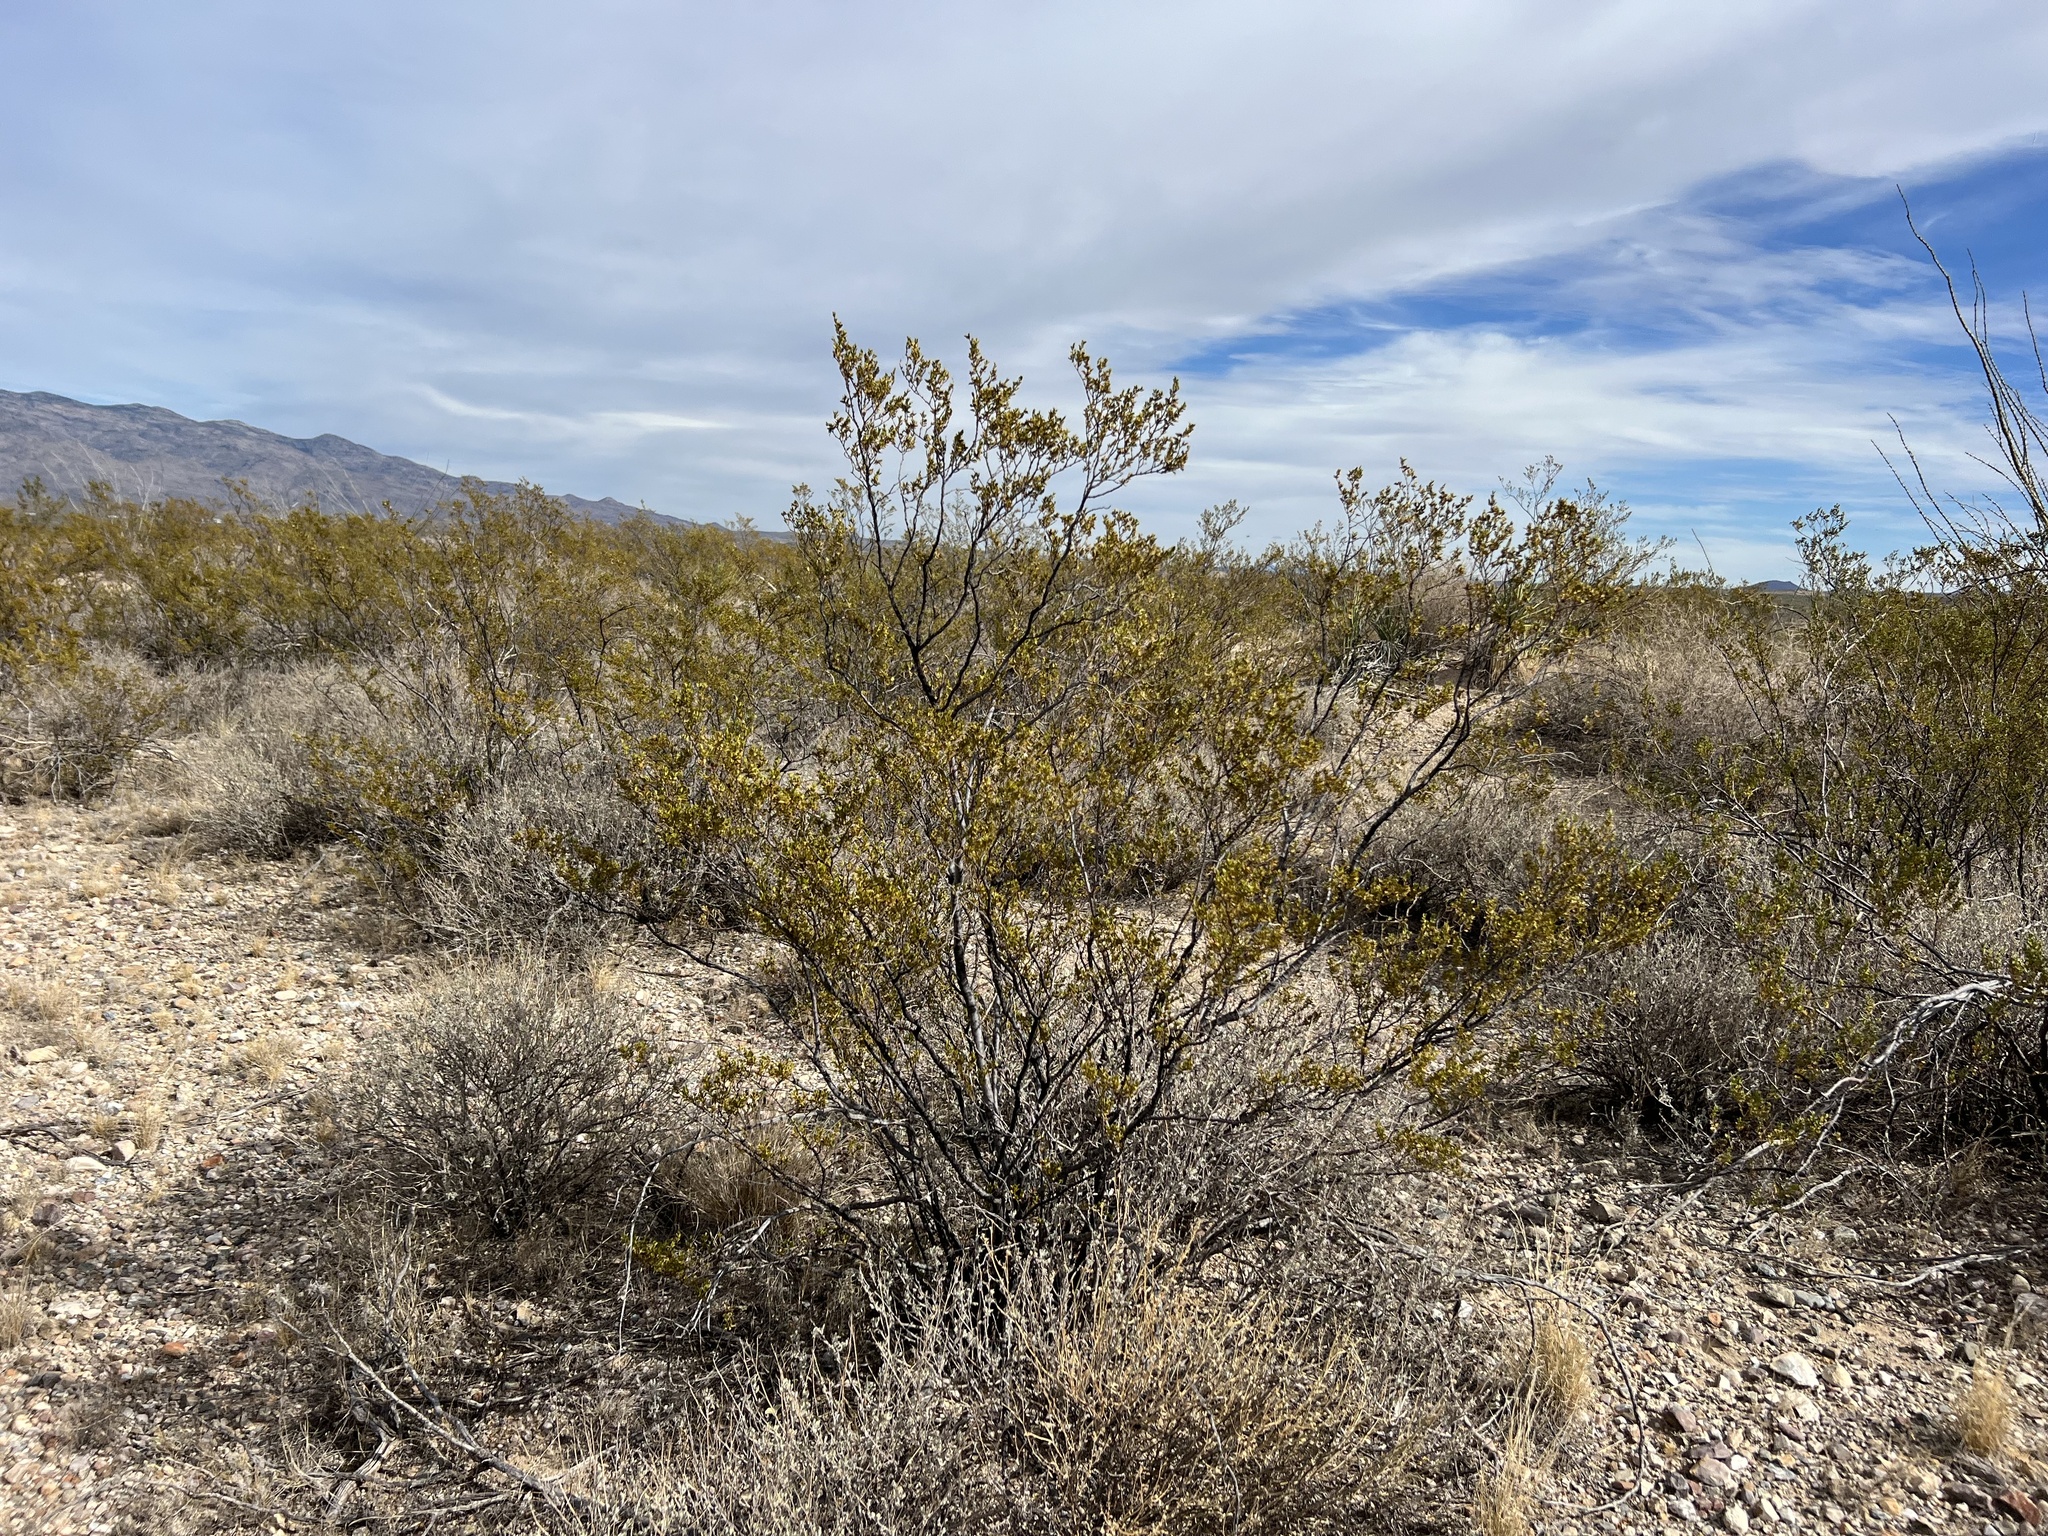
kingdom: Plantae
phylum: Tracheophyta
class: Magnoliopsida
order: Zygophyllales
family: Zygophyllaceae
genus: Larrea
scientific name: Larrea tridentata
